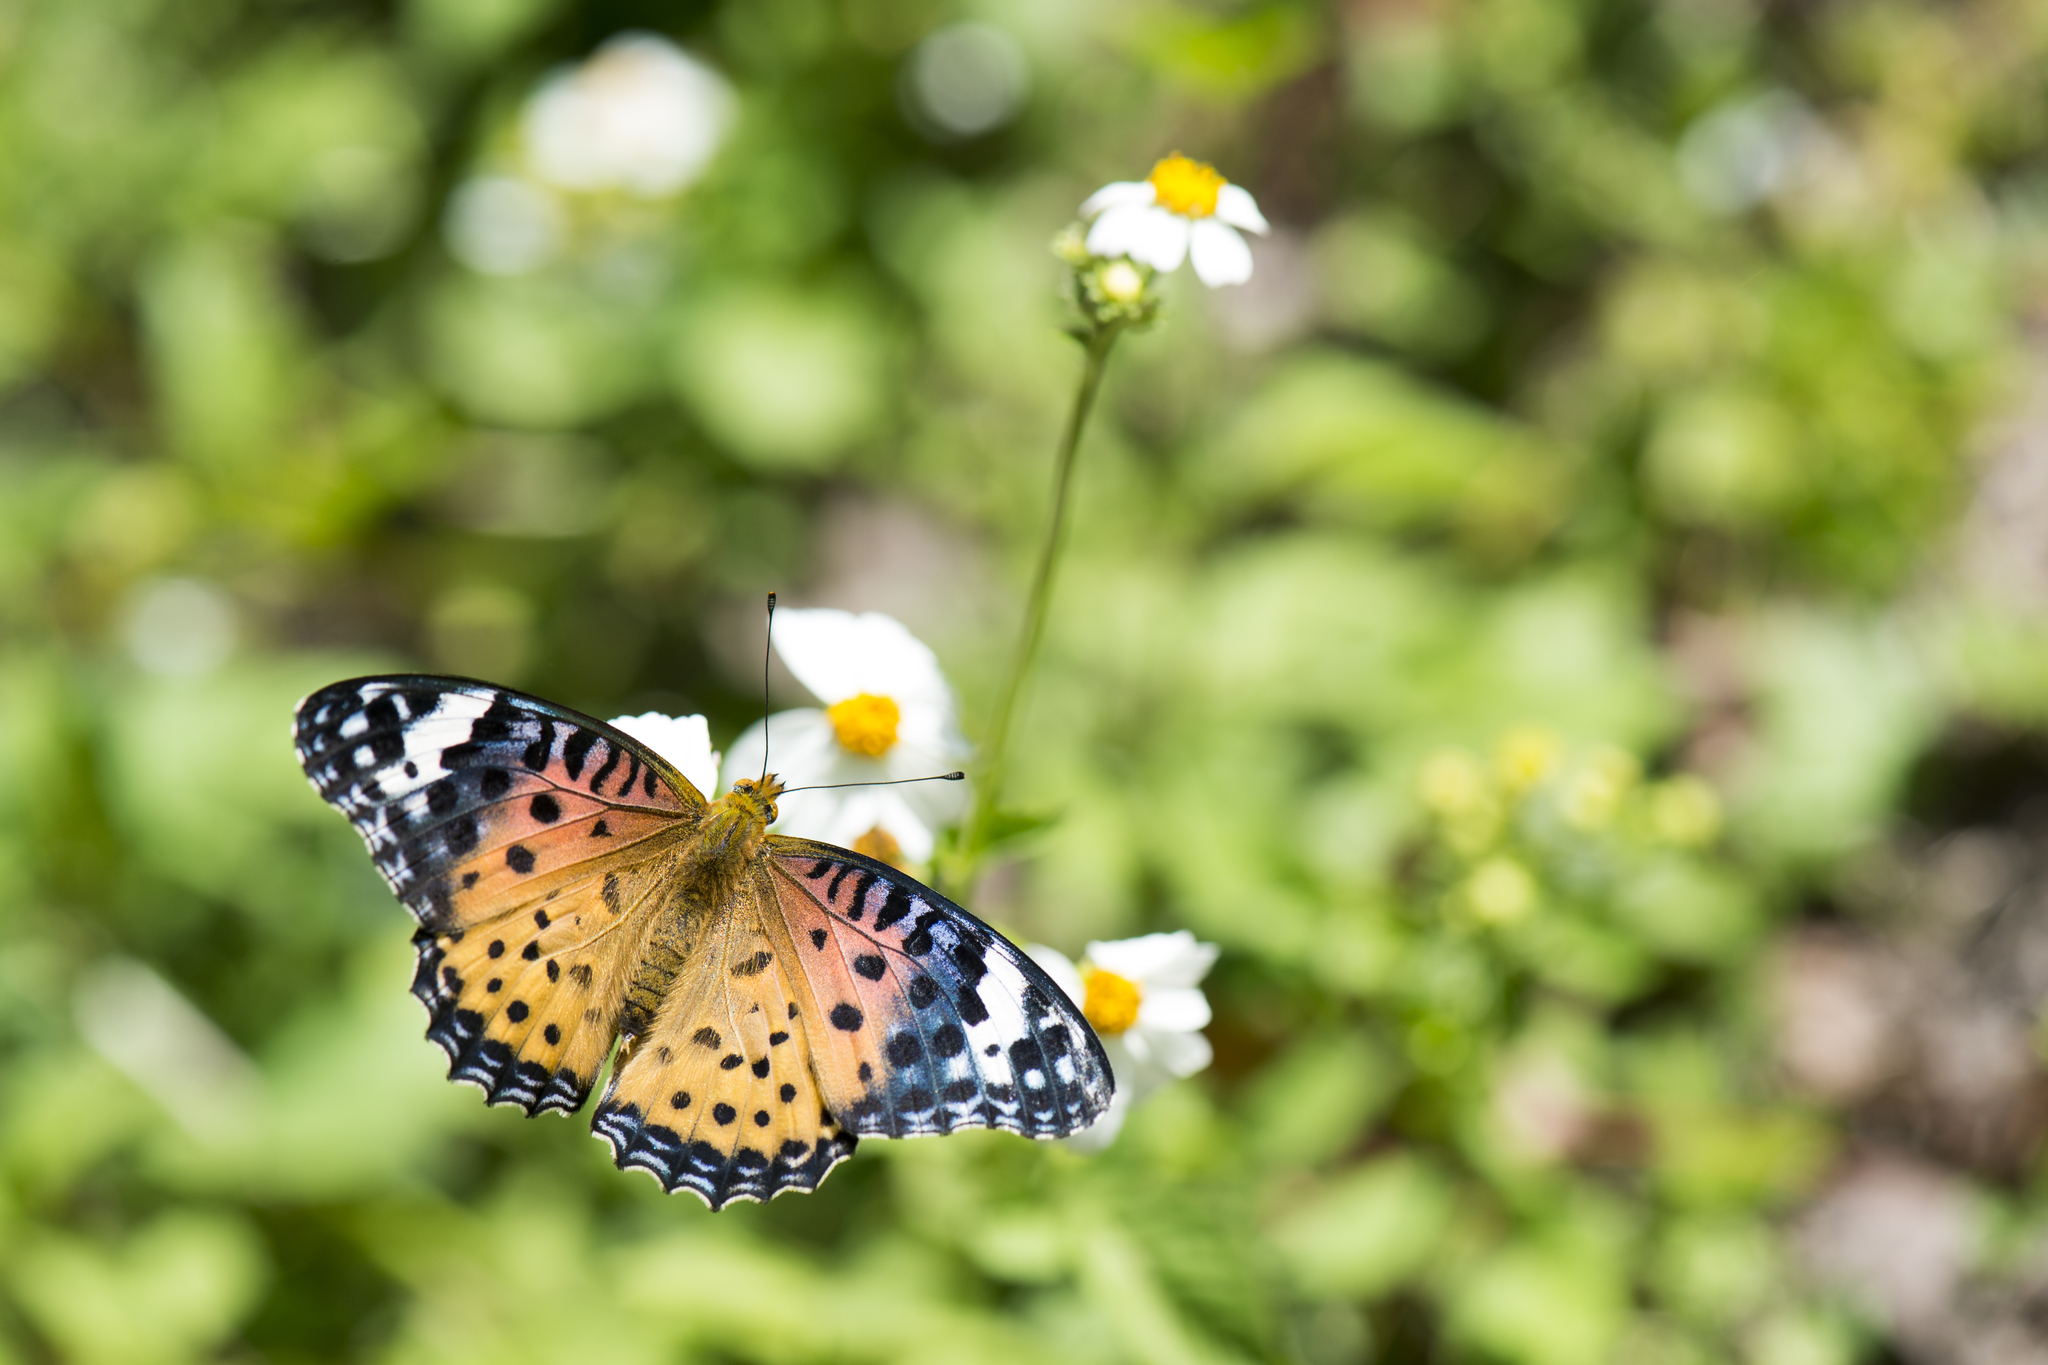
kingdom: Animalia
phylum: Arthropoda
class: Insecta
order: Lepidoptera
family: Nymphalidae
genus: Argynnis
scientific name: Argynnis hyperbius
